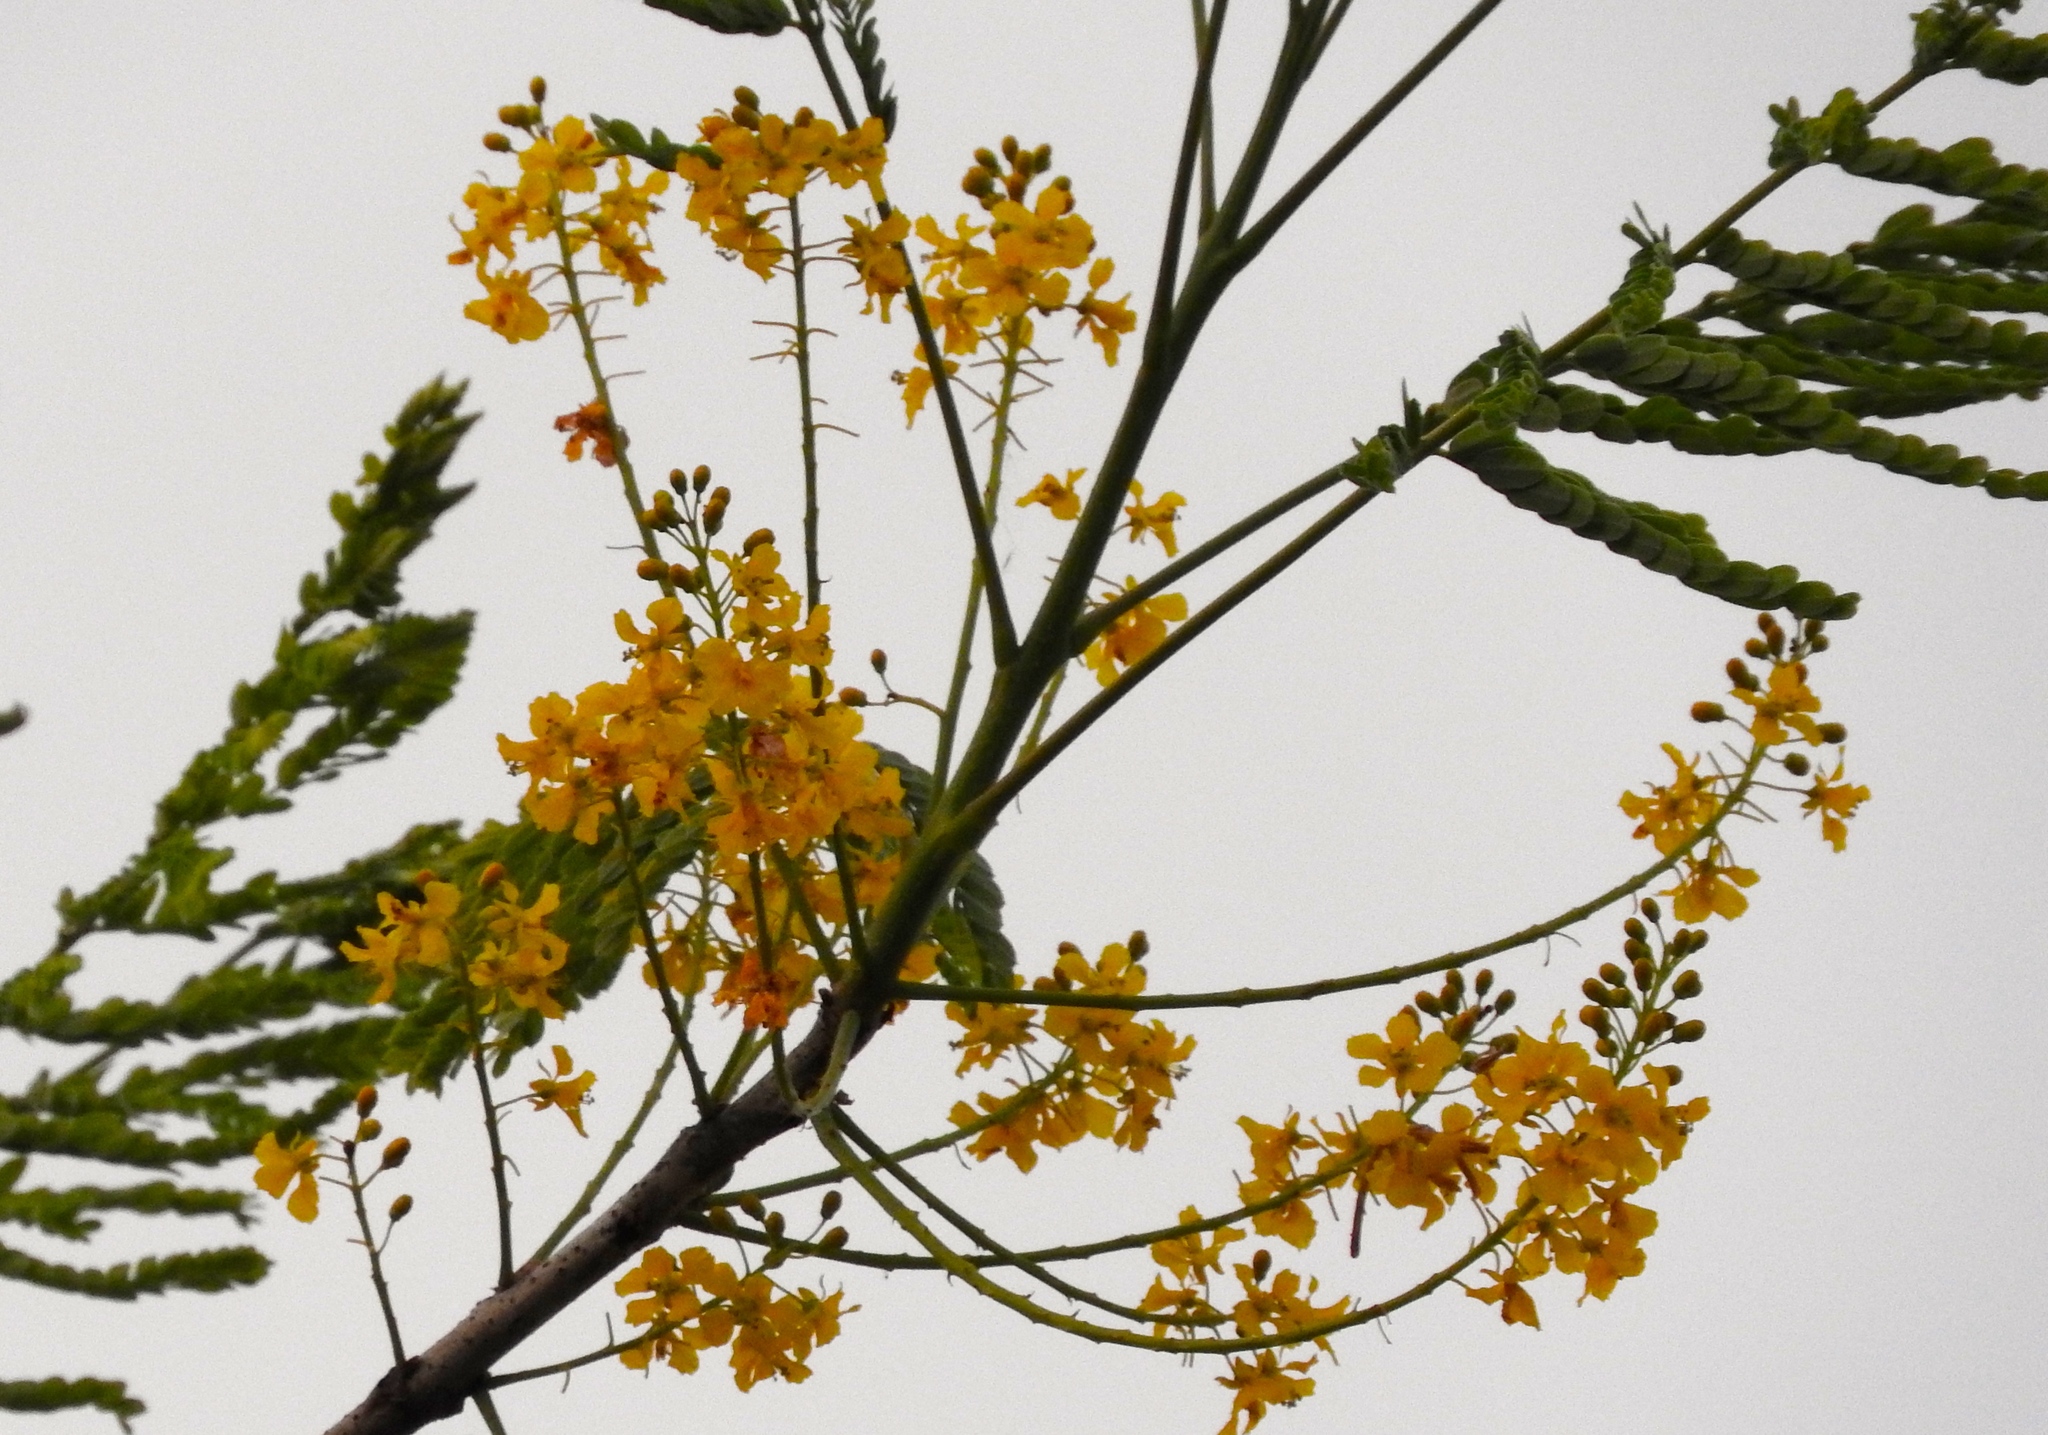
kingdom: Plantae
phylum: Tracheophyta
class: Magnoliopsida
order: Fabales
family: Fabaceae
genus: Conzattia
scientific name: Conzattia sericea
